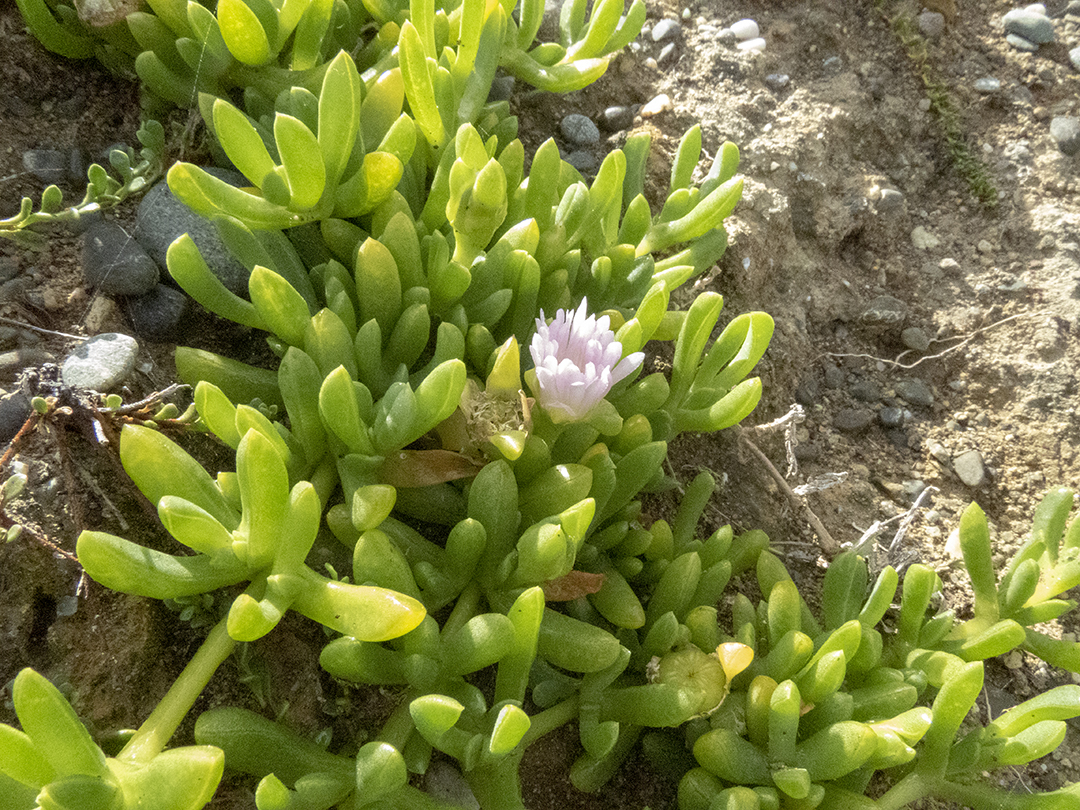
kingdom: Plantae
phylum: Tracheophyta
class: Magnoliopsida
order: Caryophyllales
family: Aizoaceae
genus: Disphyma
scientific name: Disphyma australe
